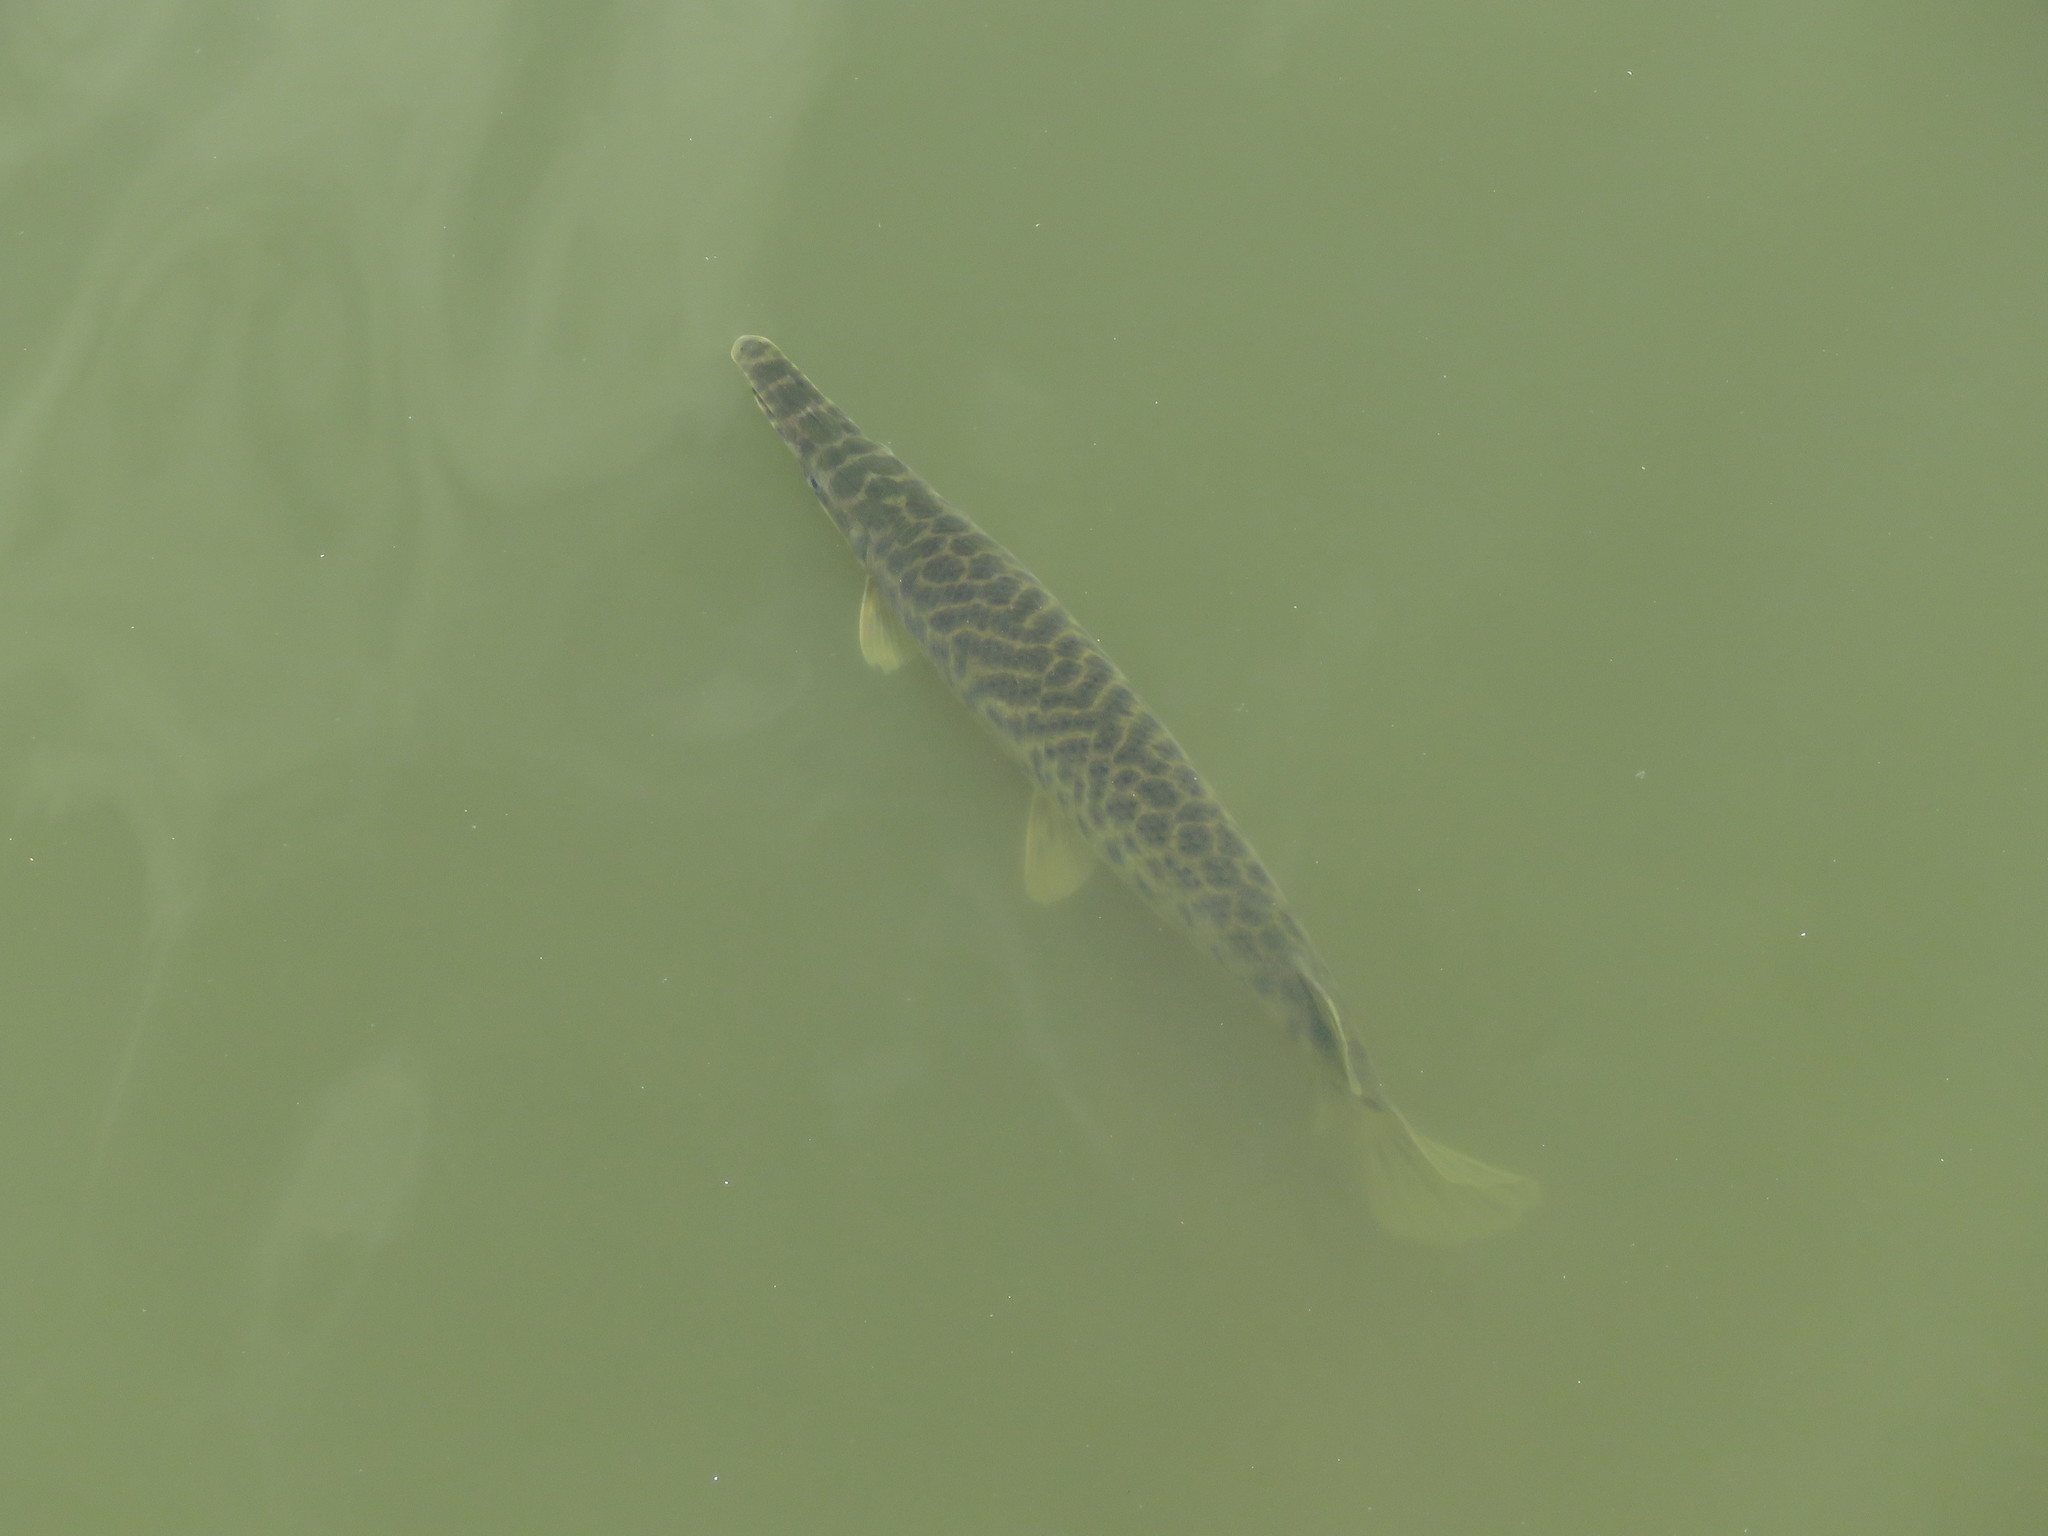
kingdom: Animalia
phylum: Chordata
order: Lepisosteiformes
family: Lepisosteidae
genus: Lepisosteus
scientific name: Lepisosteus platyrhincus
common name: Florida gar
